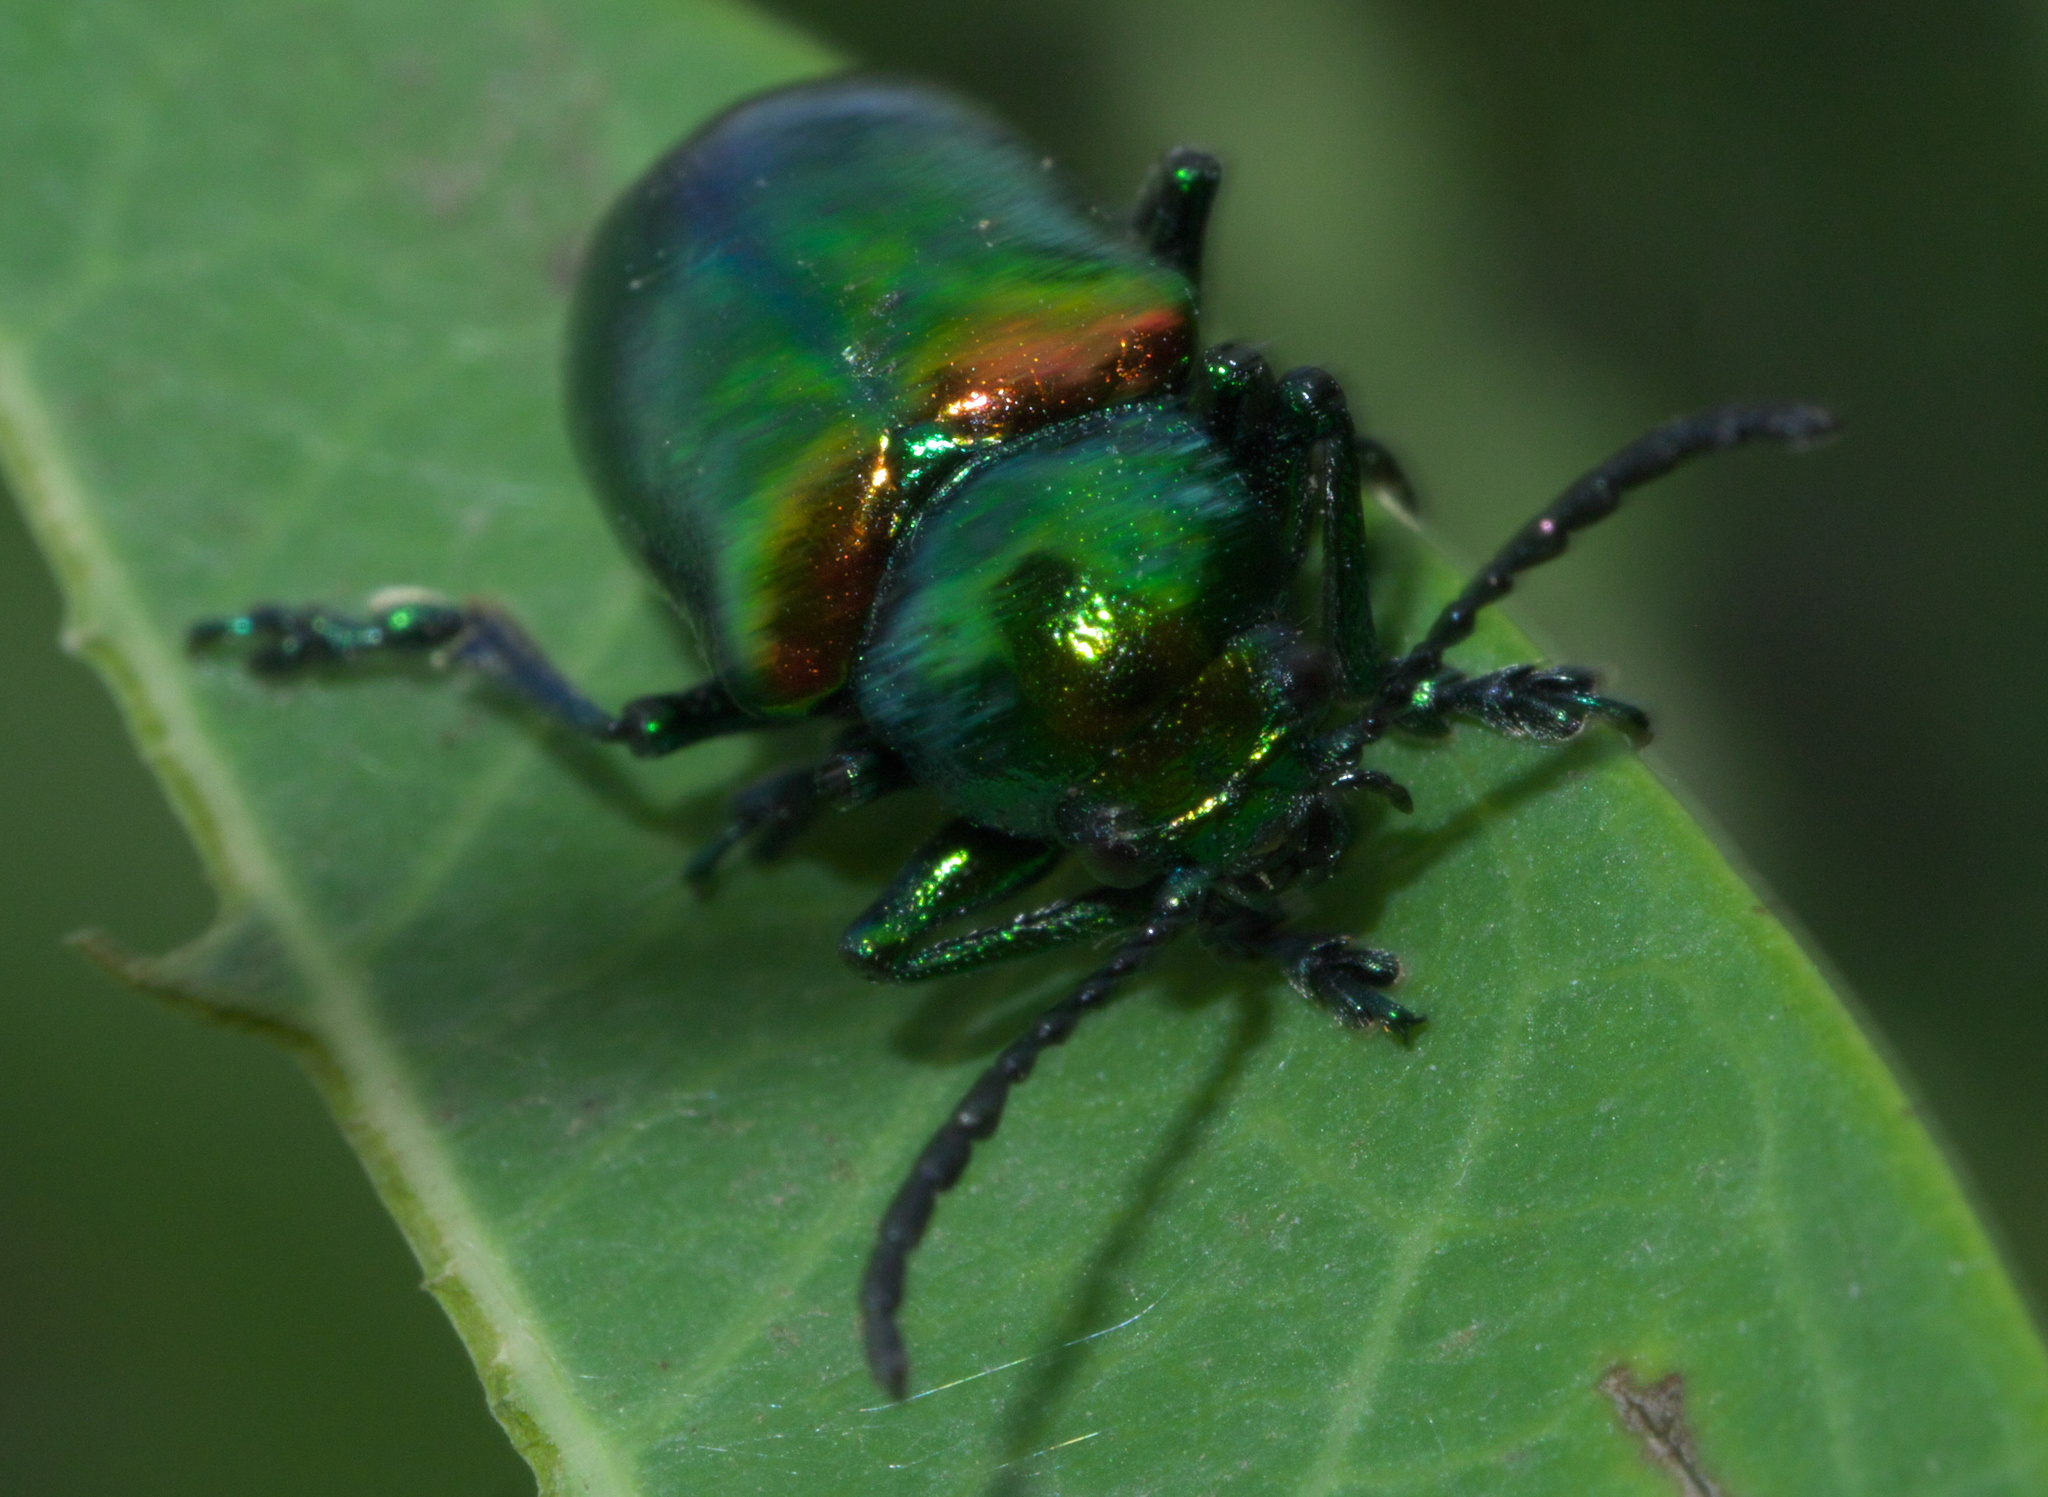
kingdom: Animalia
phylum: Arthropoda
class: Insecta
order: Coleoptera
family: Chrysomelidae
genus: Chrysochus
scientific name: Chrysochus auratus
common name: Dogbane leaf beetle
